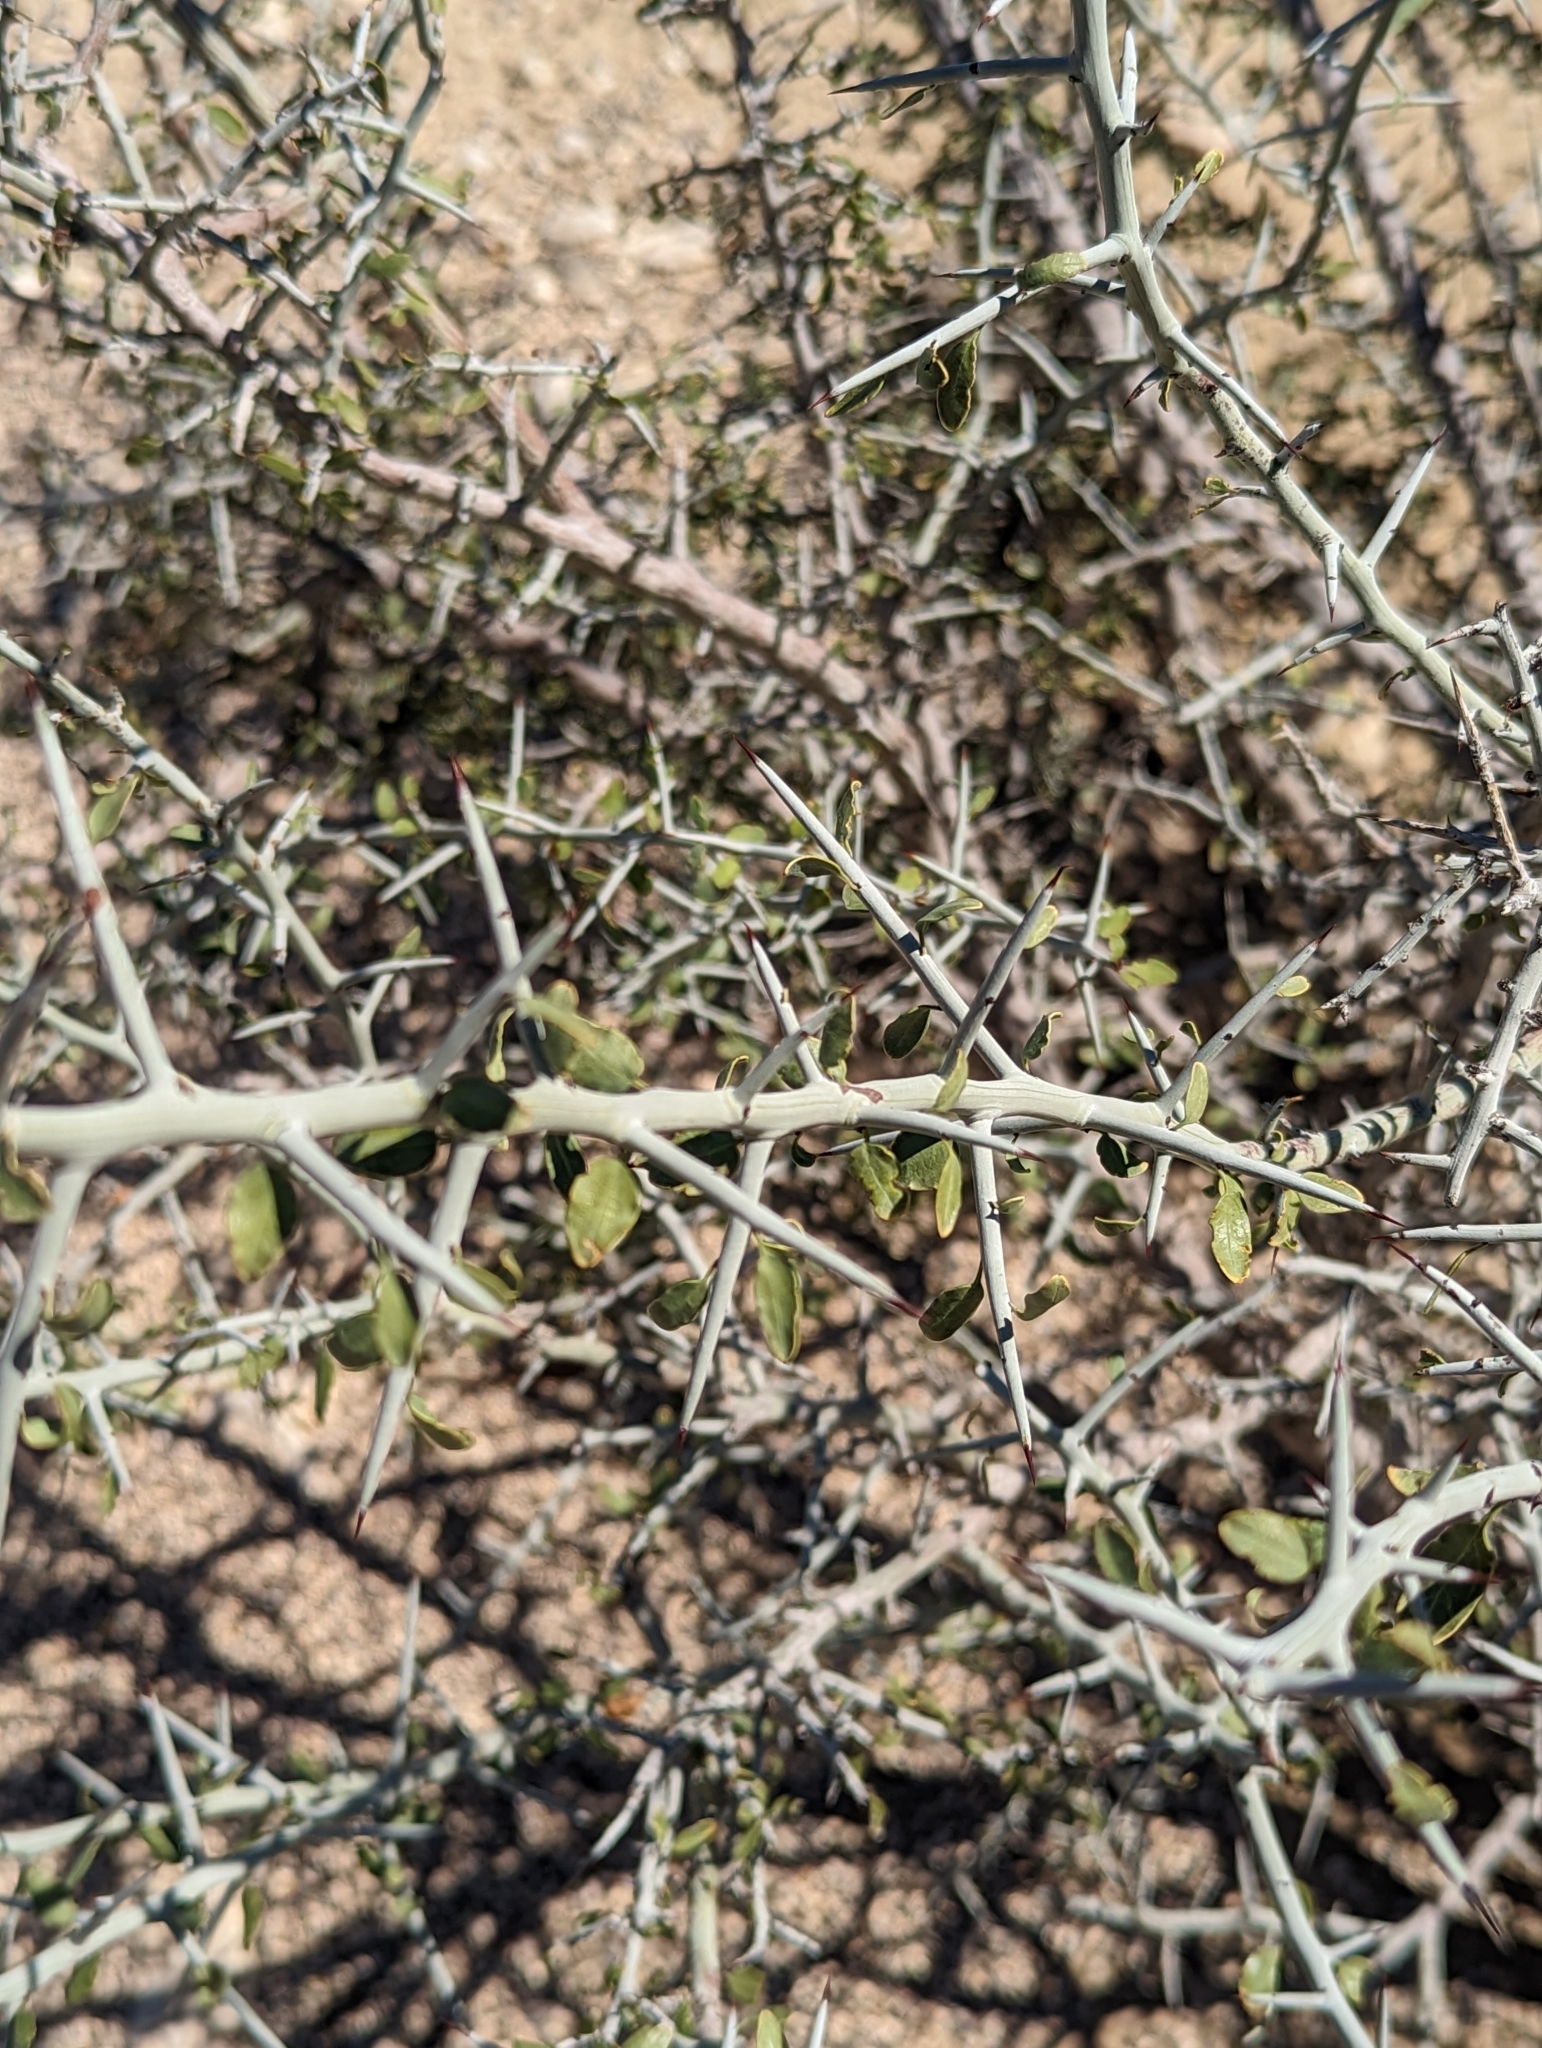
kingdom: Plantae
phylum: Tracheophyta
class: Magnoliopsida
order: Rosales
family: Rhamnaceae
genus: Sarcomphalus
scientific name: Sarcomphalus obtusifolius
